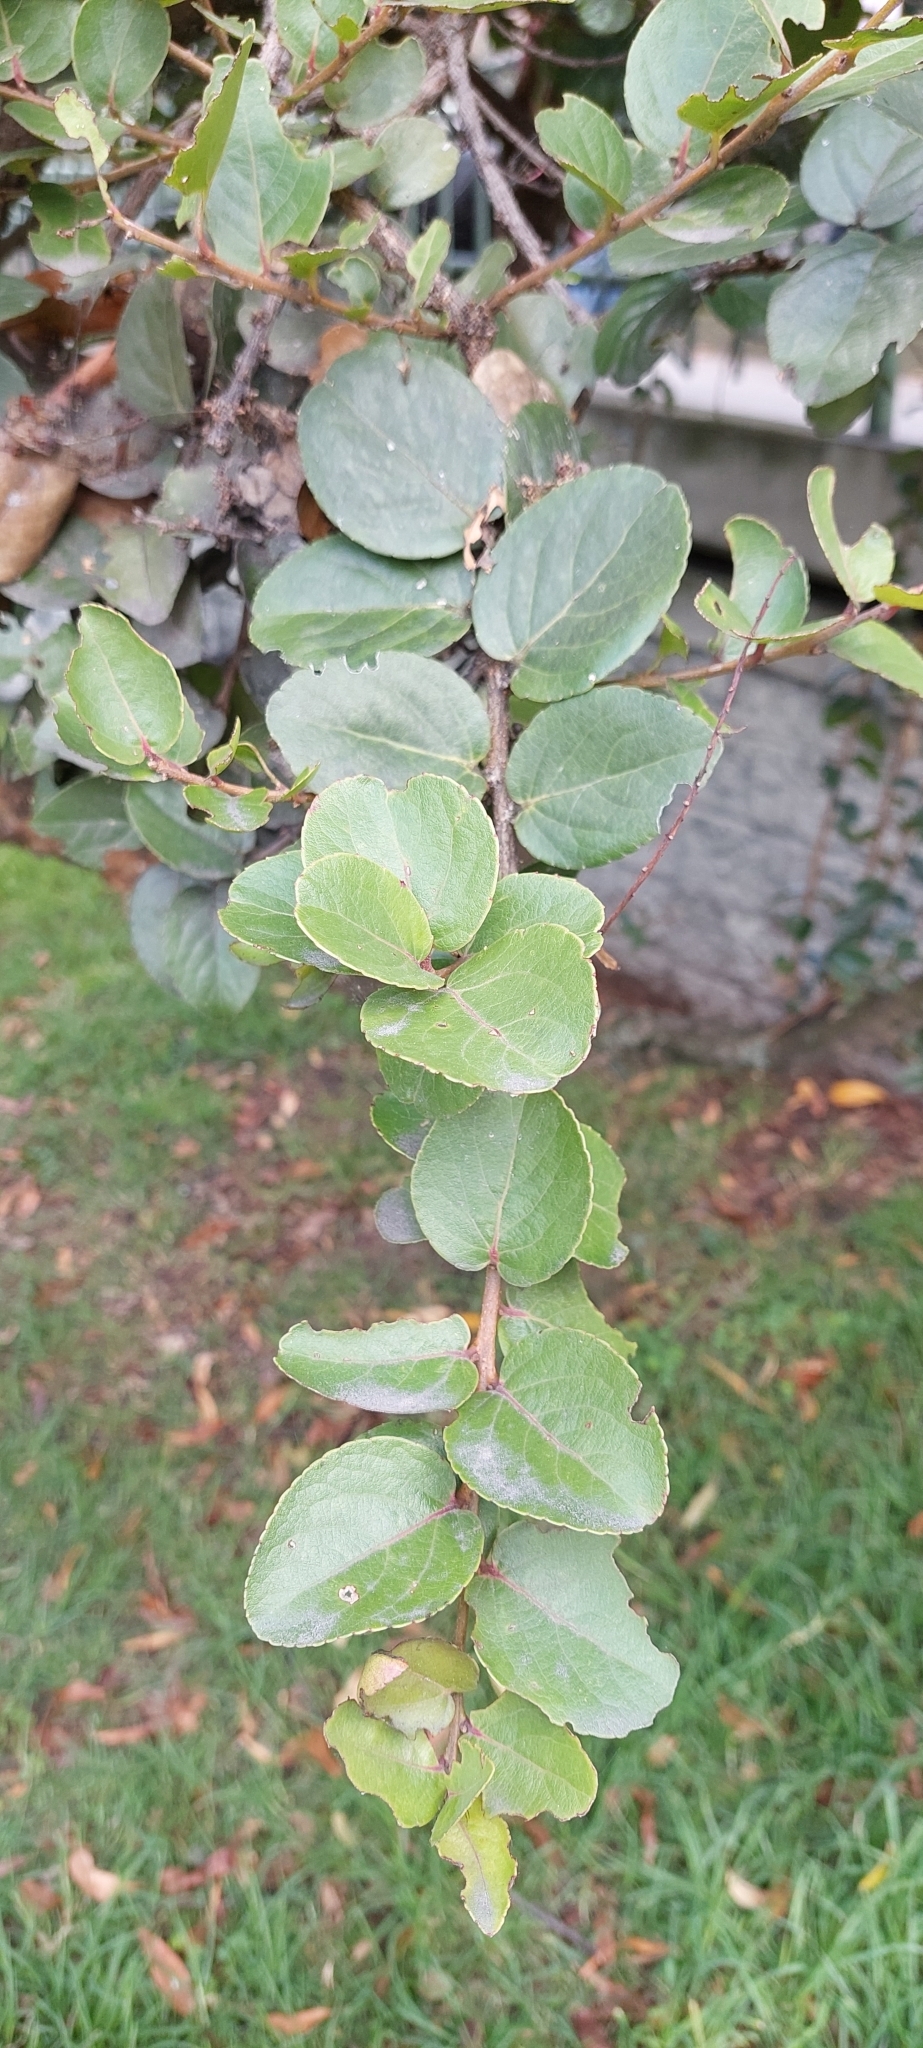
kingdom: Plantae
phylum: Tracheophyta
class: Magnoliopsida
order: Malpighiales
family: Salicaceae
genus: Xylosma
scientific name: Xylosma spiculifera
